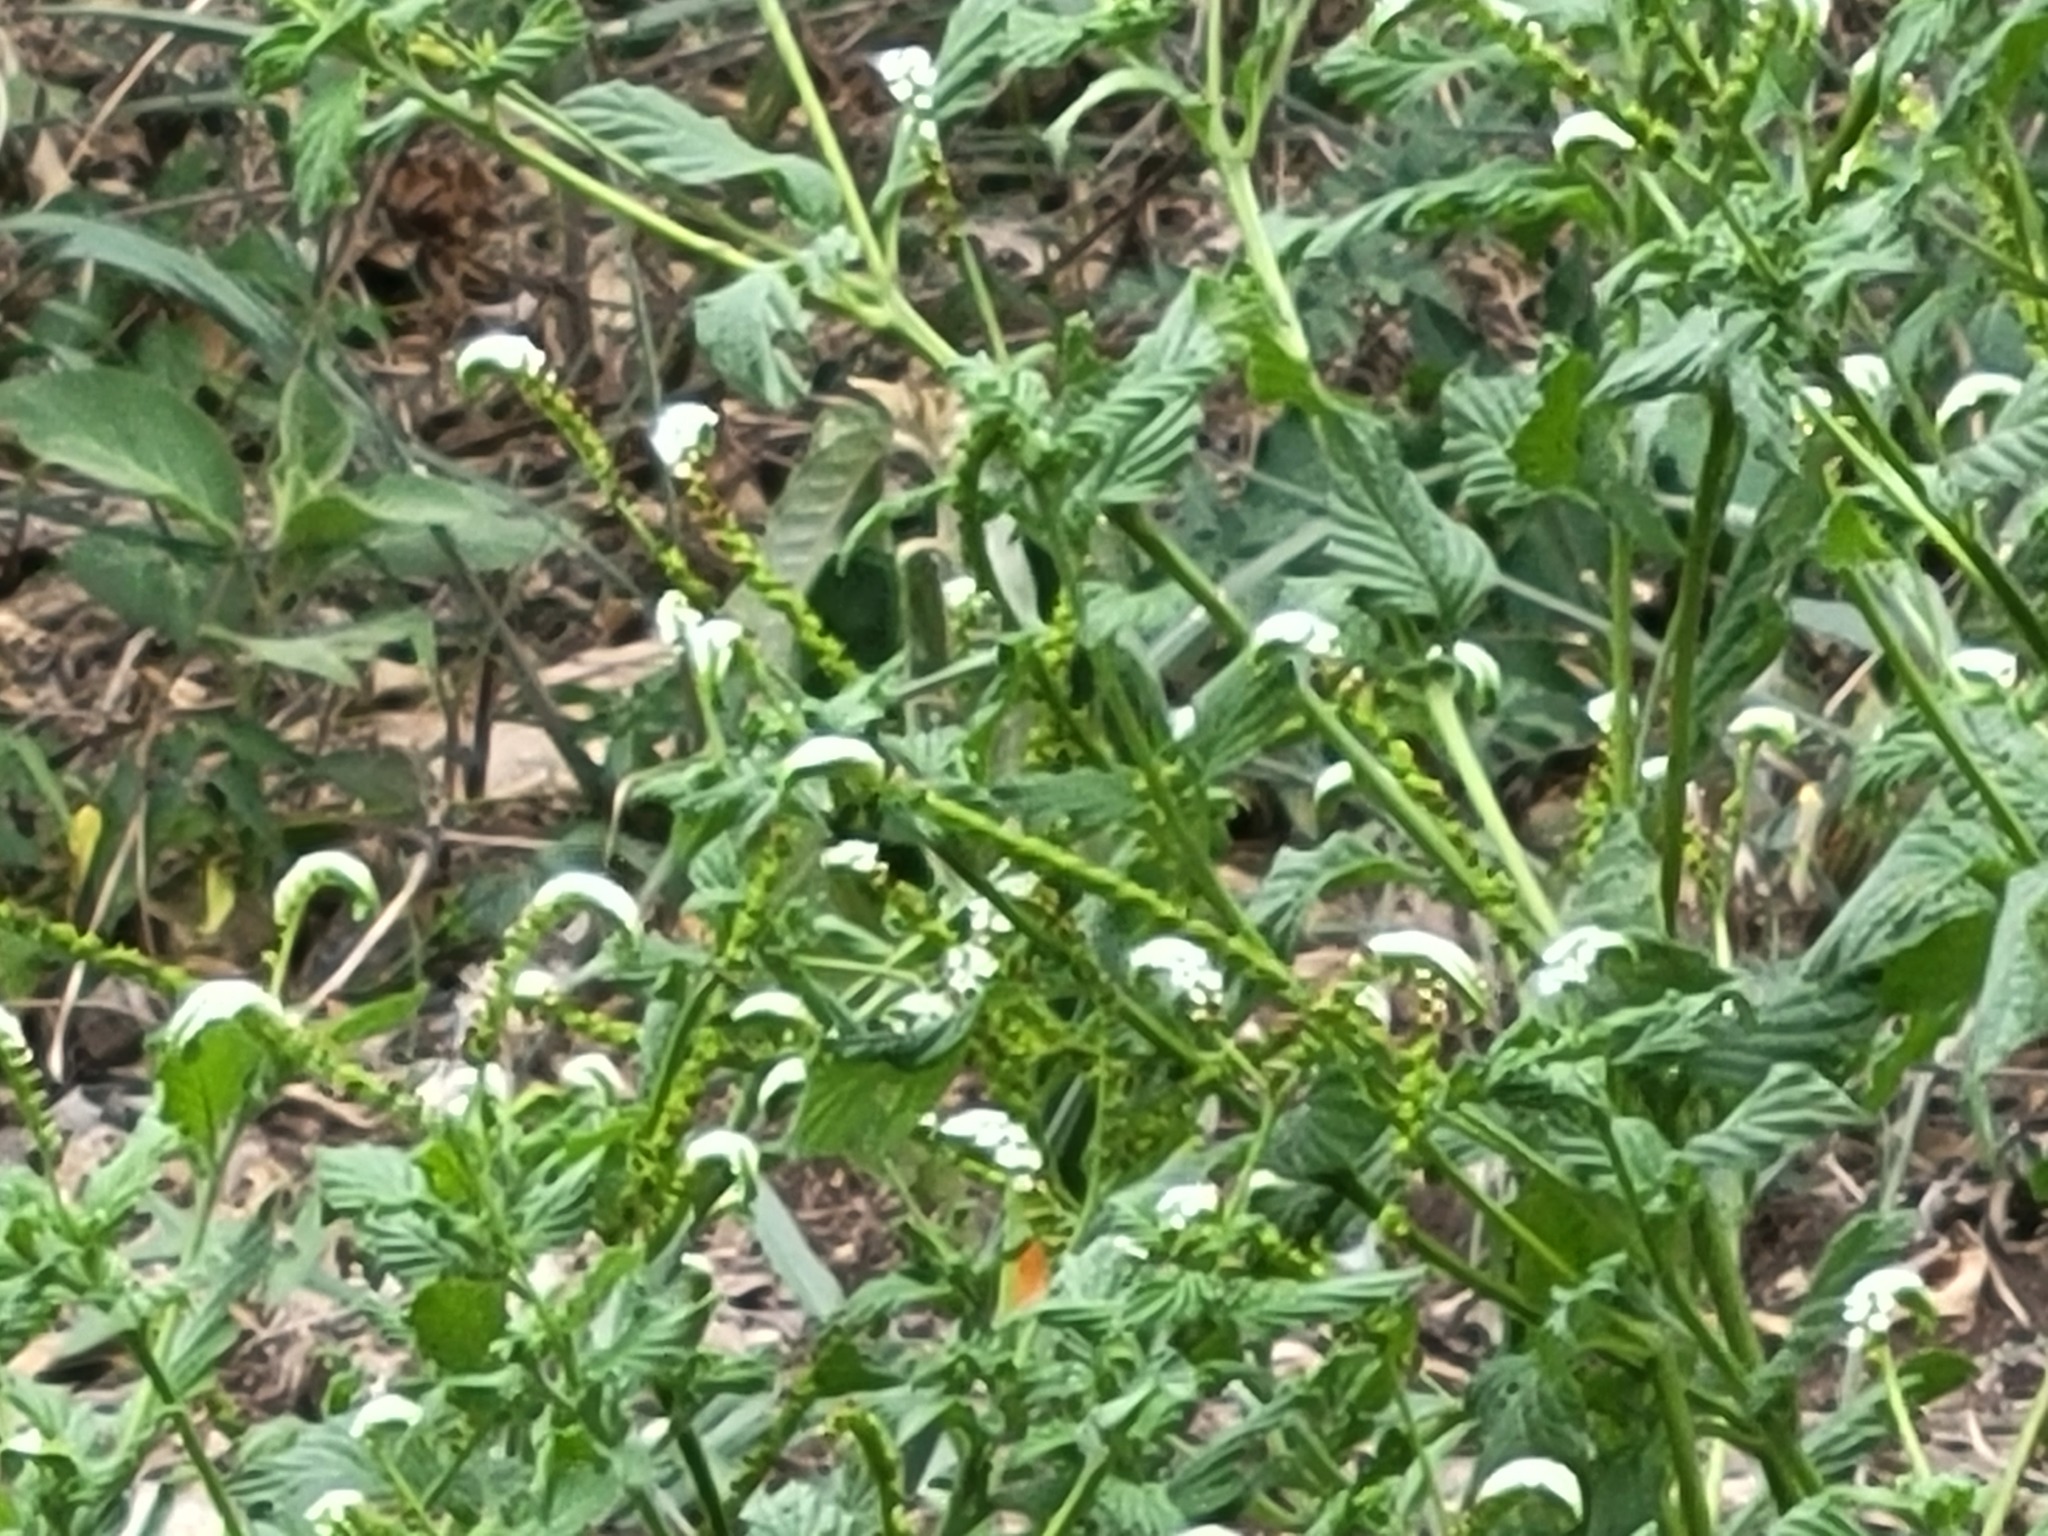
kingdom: Plantae
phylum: Tracheophyta
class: Magnoliopsida
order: Boraginales
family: Heliotropiaceae
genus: Heliotropium
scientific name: Heliotropium angiospermum
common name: Eye bright
